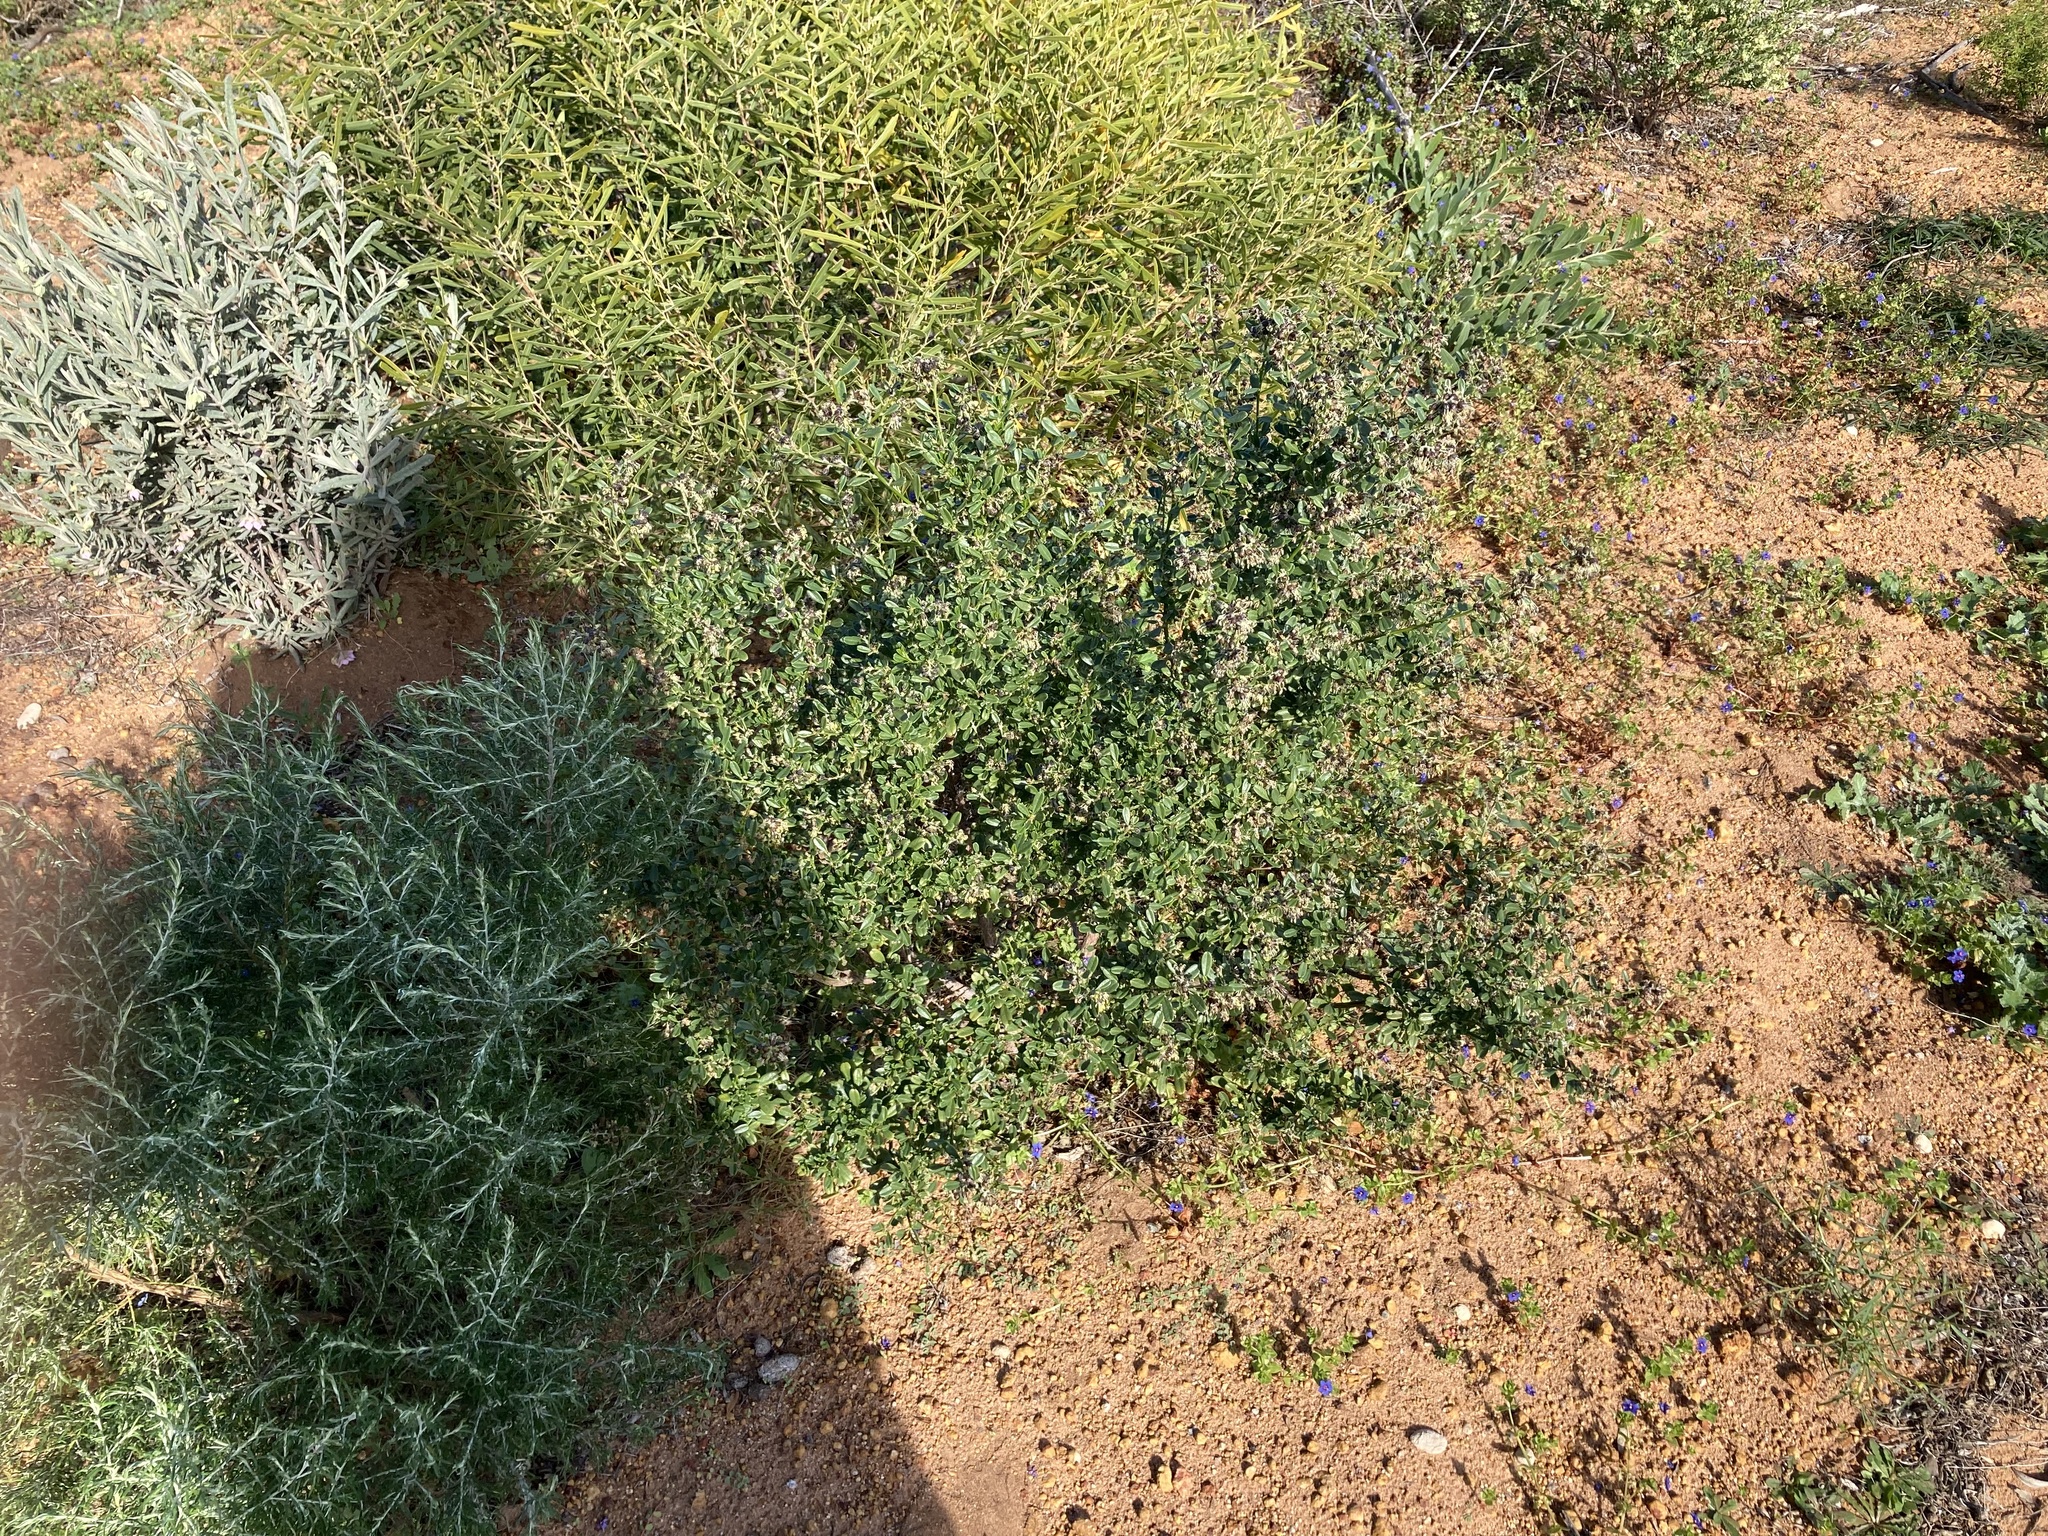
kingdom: Plantae
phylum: Tracheophyta
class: Magnoliopsida
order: Fabales
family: Surianaceae
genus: Stylobasium
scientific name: Stylobasium spathulatum
